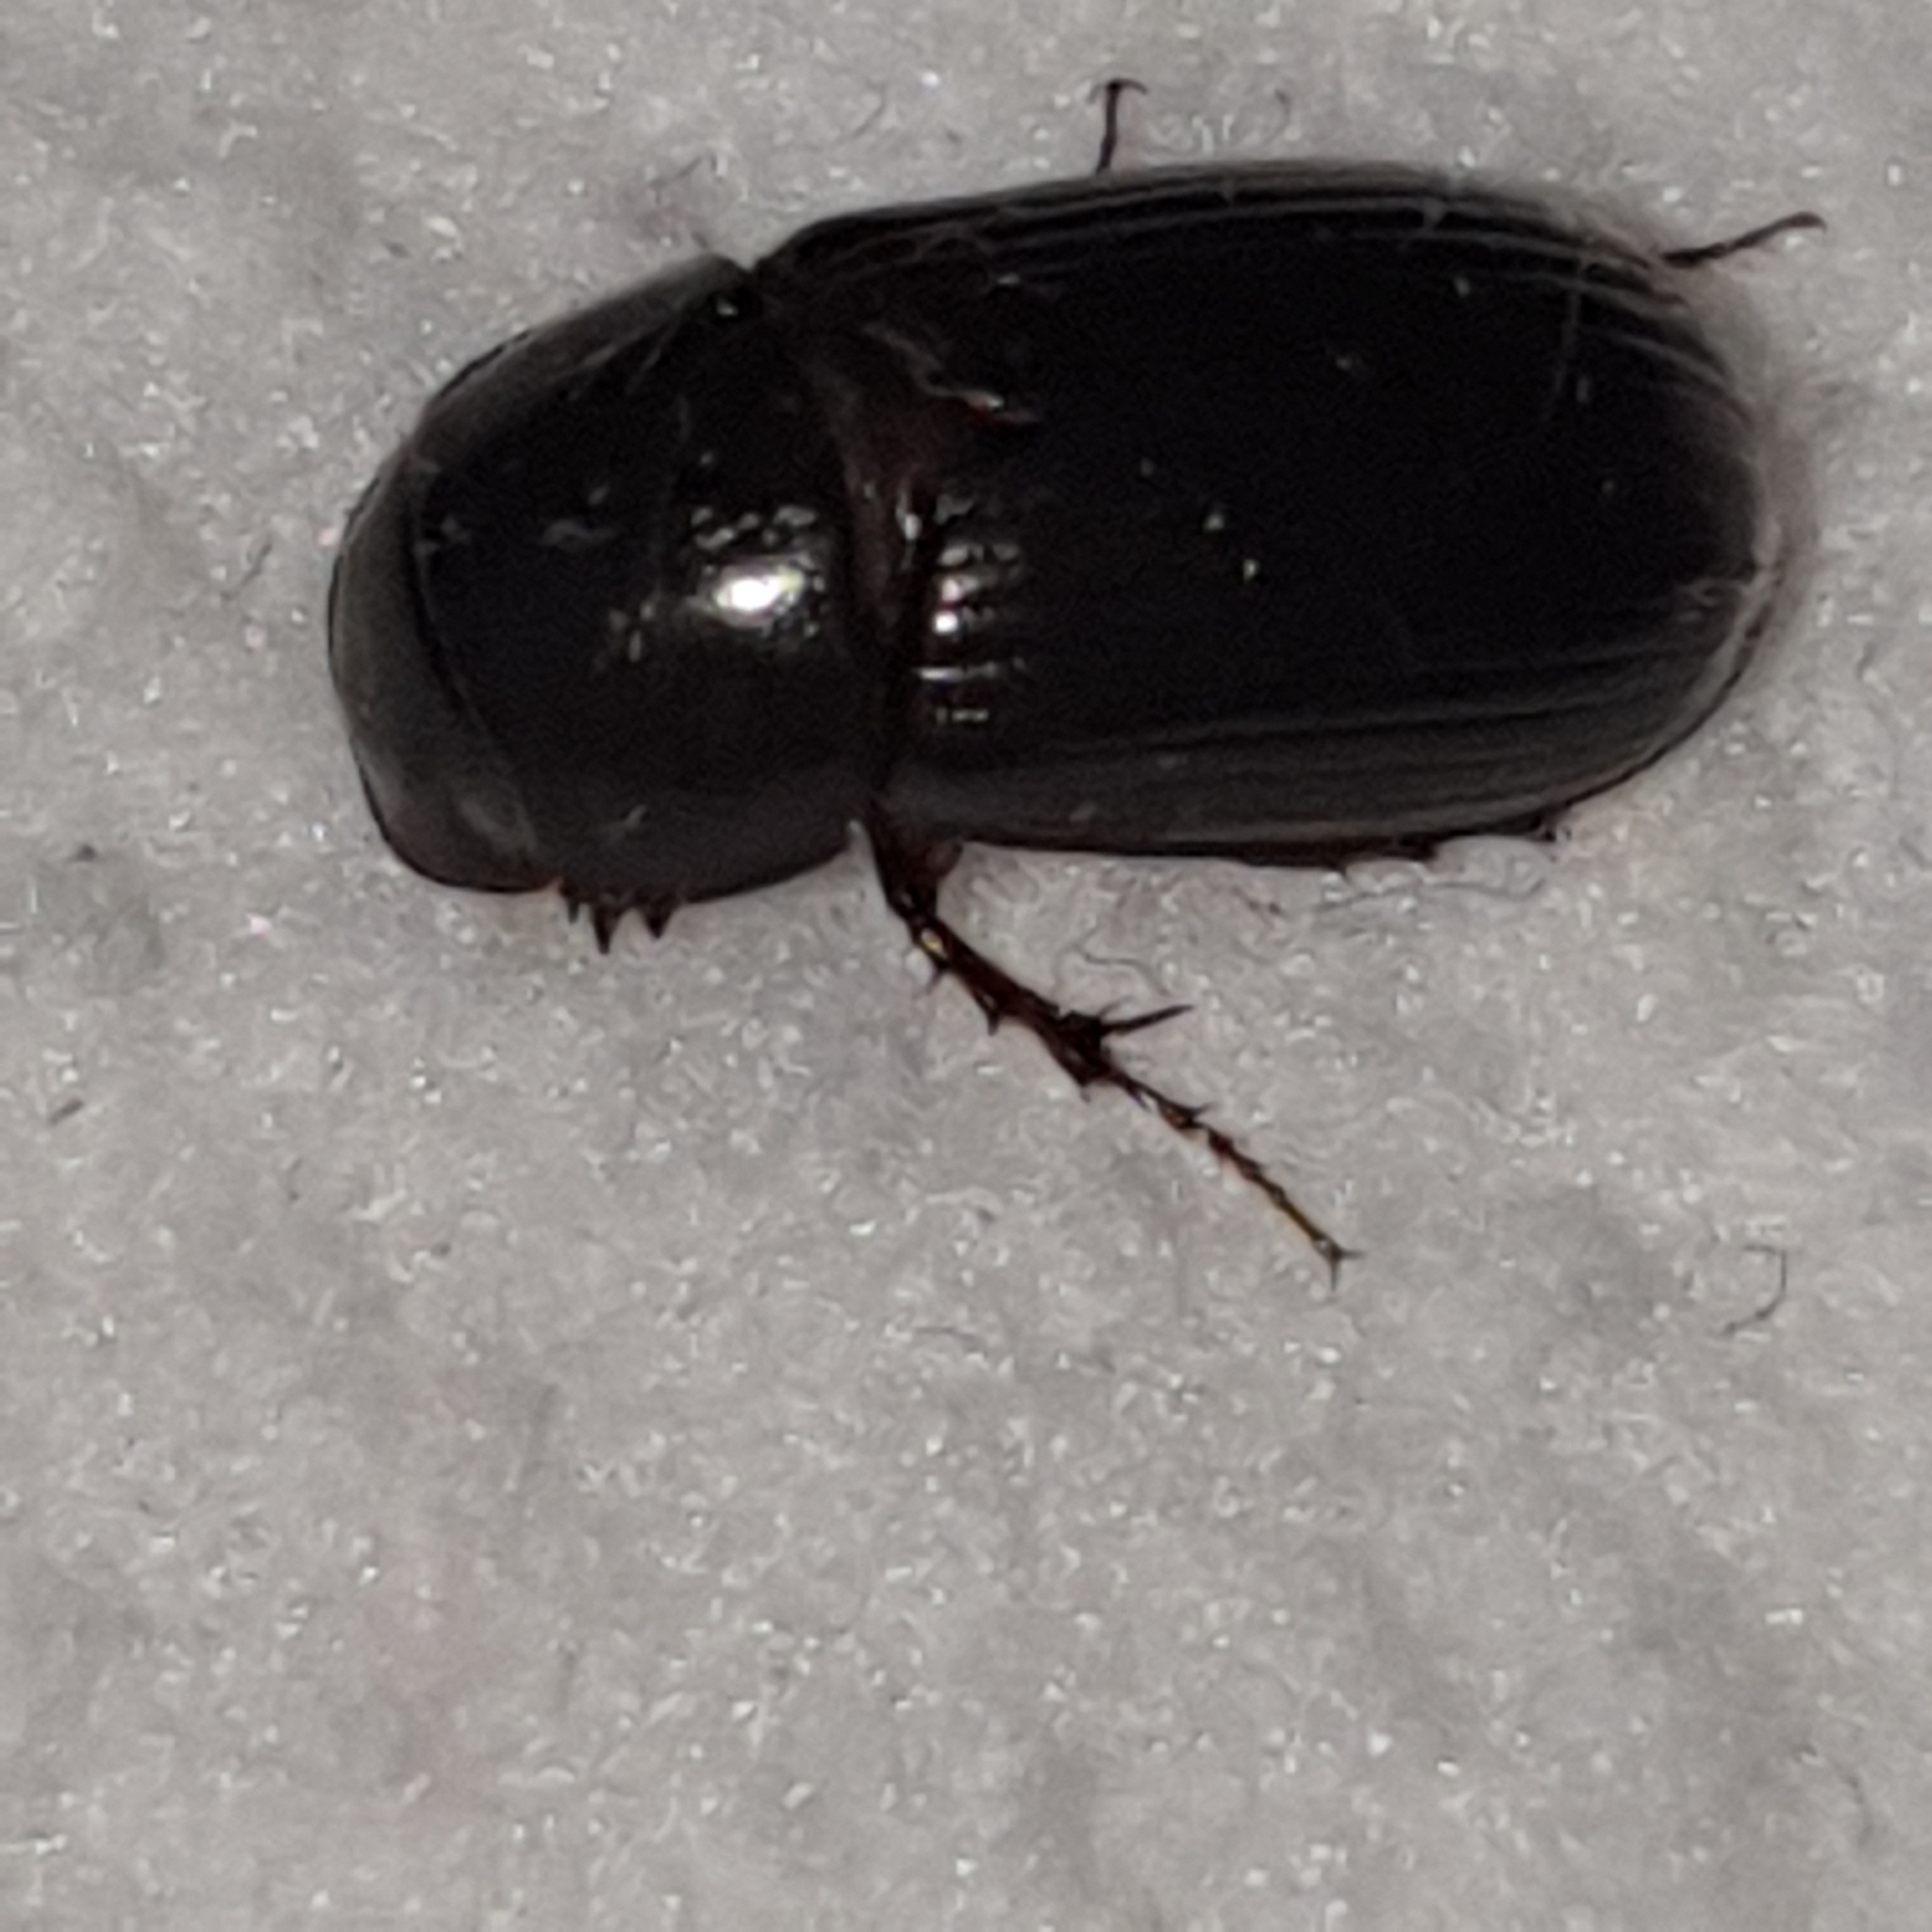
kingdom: Animalia
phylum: Arthropoda
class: Insecta
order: Coleoptera
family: Scarabaeidae
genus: Acrossus
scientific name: Acrossus rufipes
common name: Night-flying dung beetle
